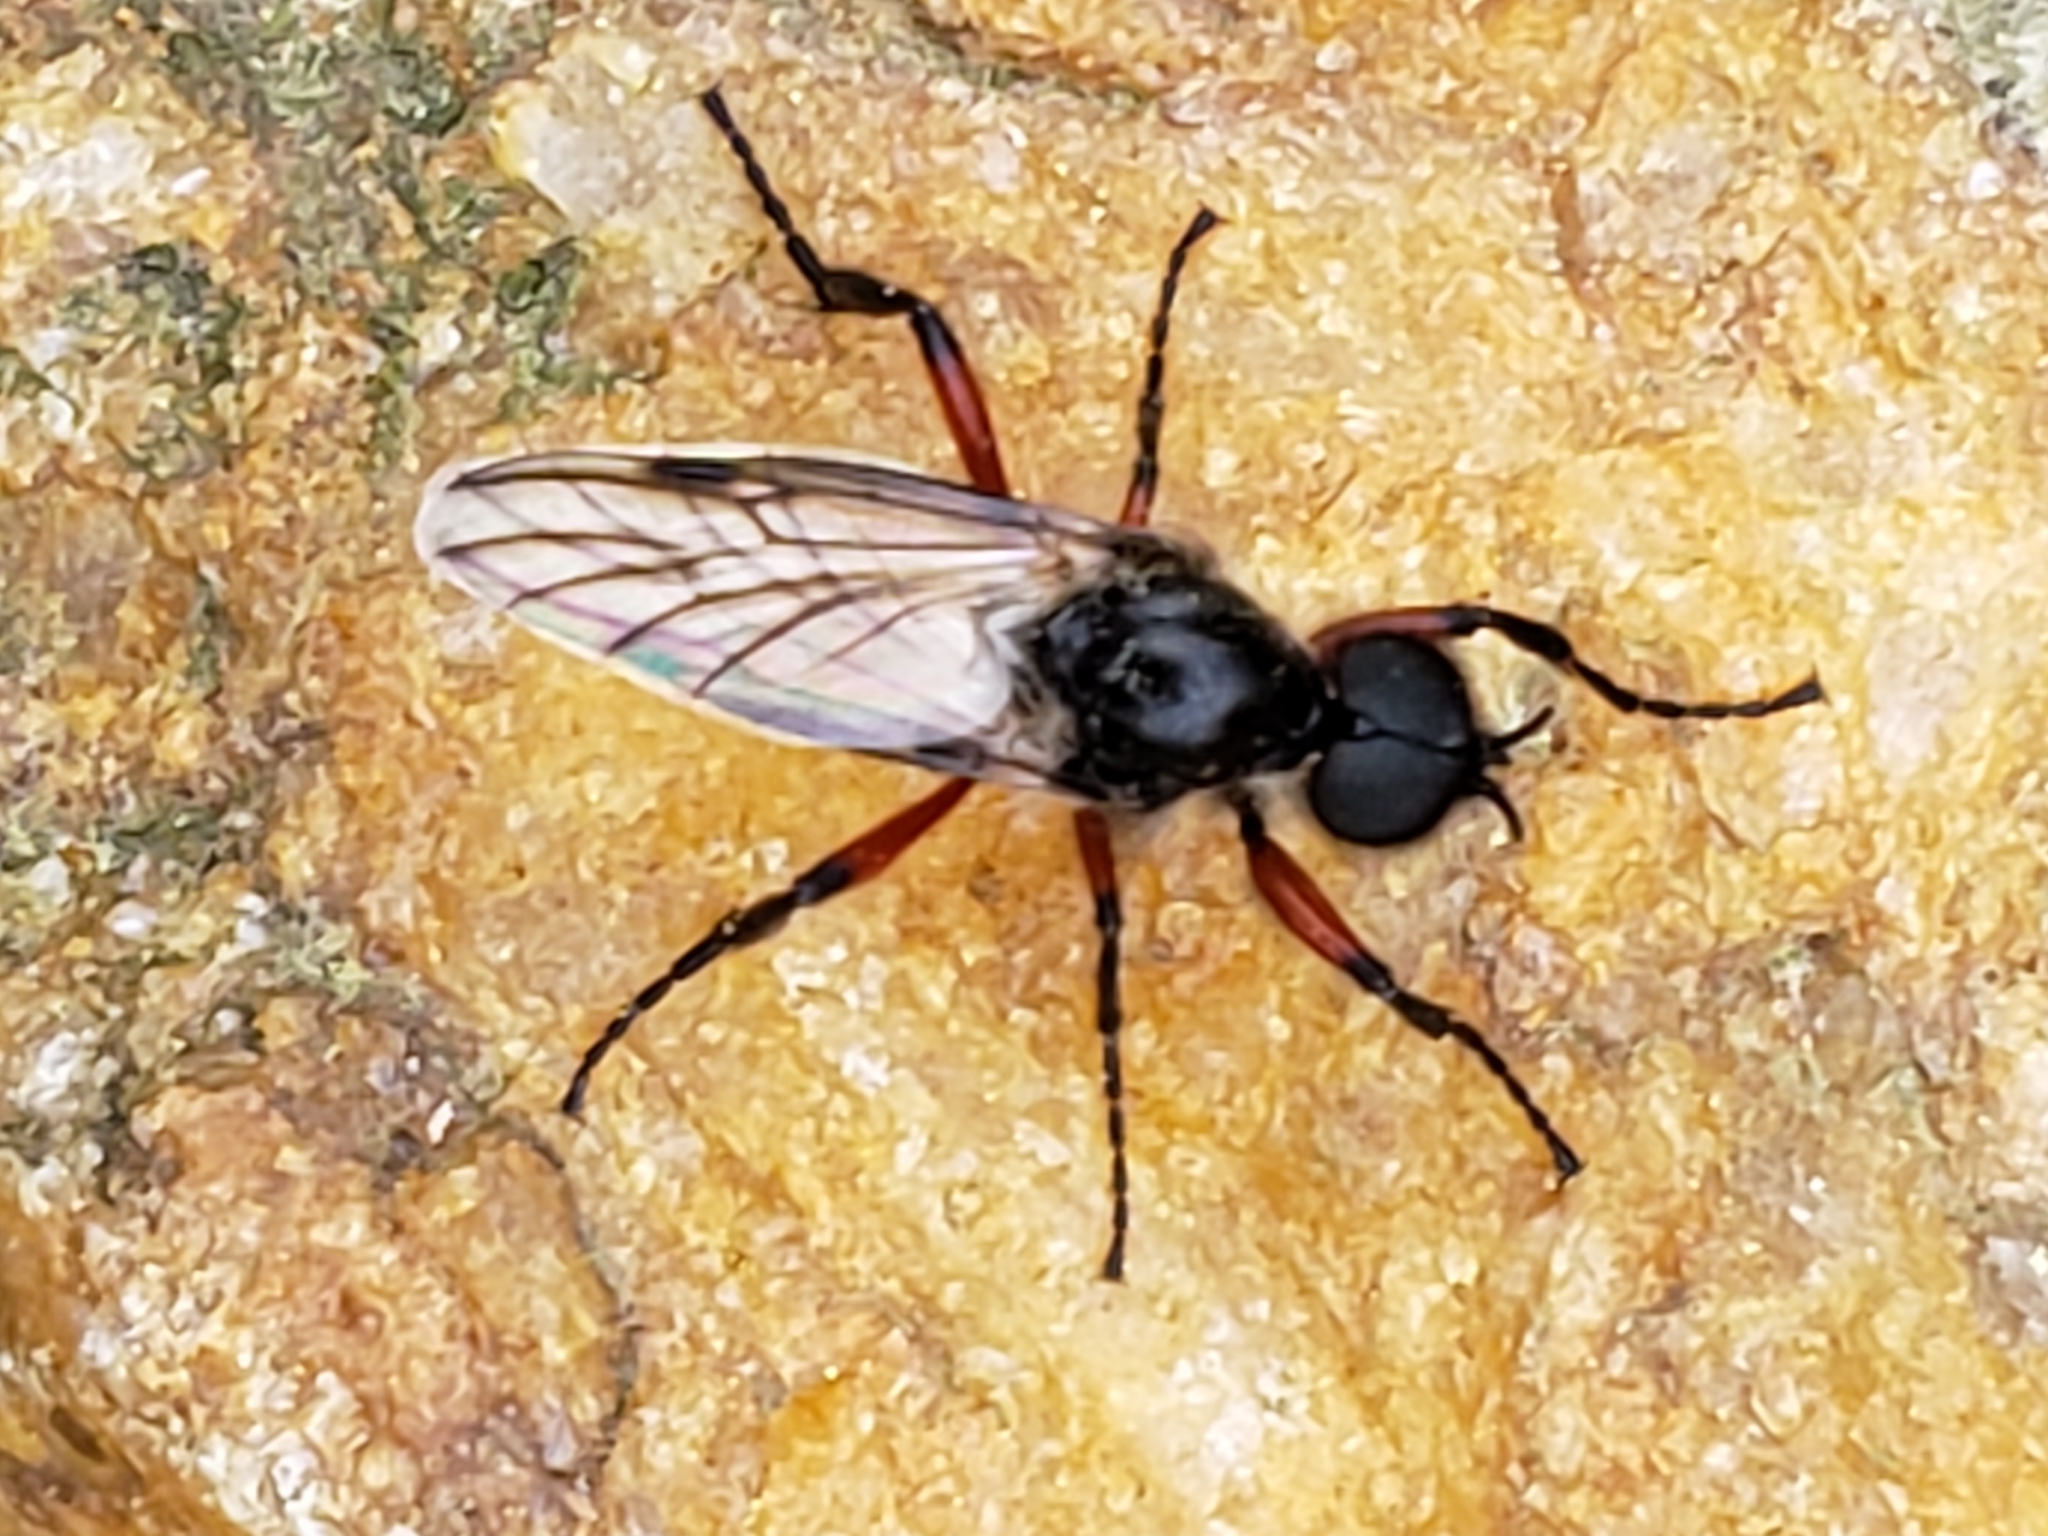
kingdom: Animalia
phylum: Arthropoda
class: Insecta
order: Diptera
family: Bibionidae
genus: Bibio
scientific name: Bibio femoratus
